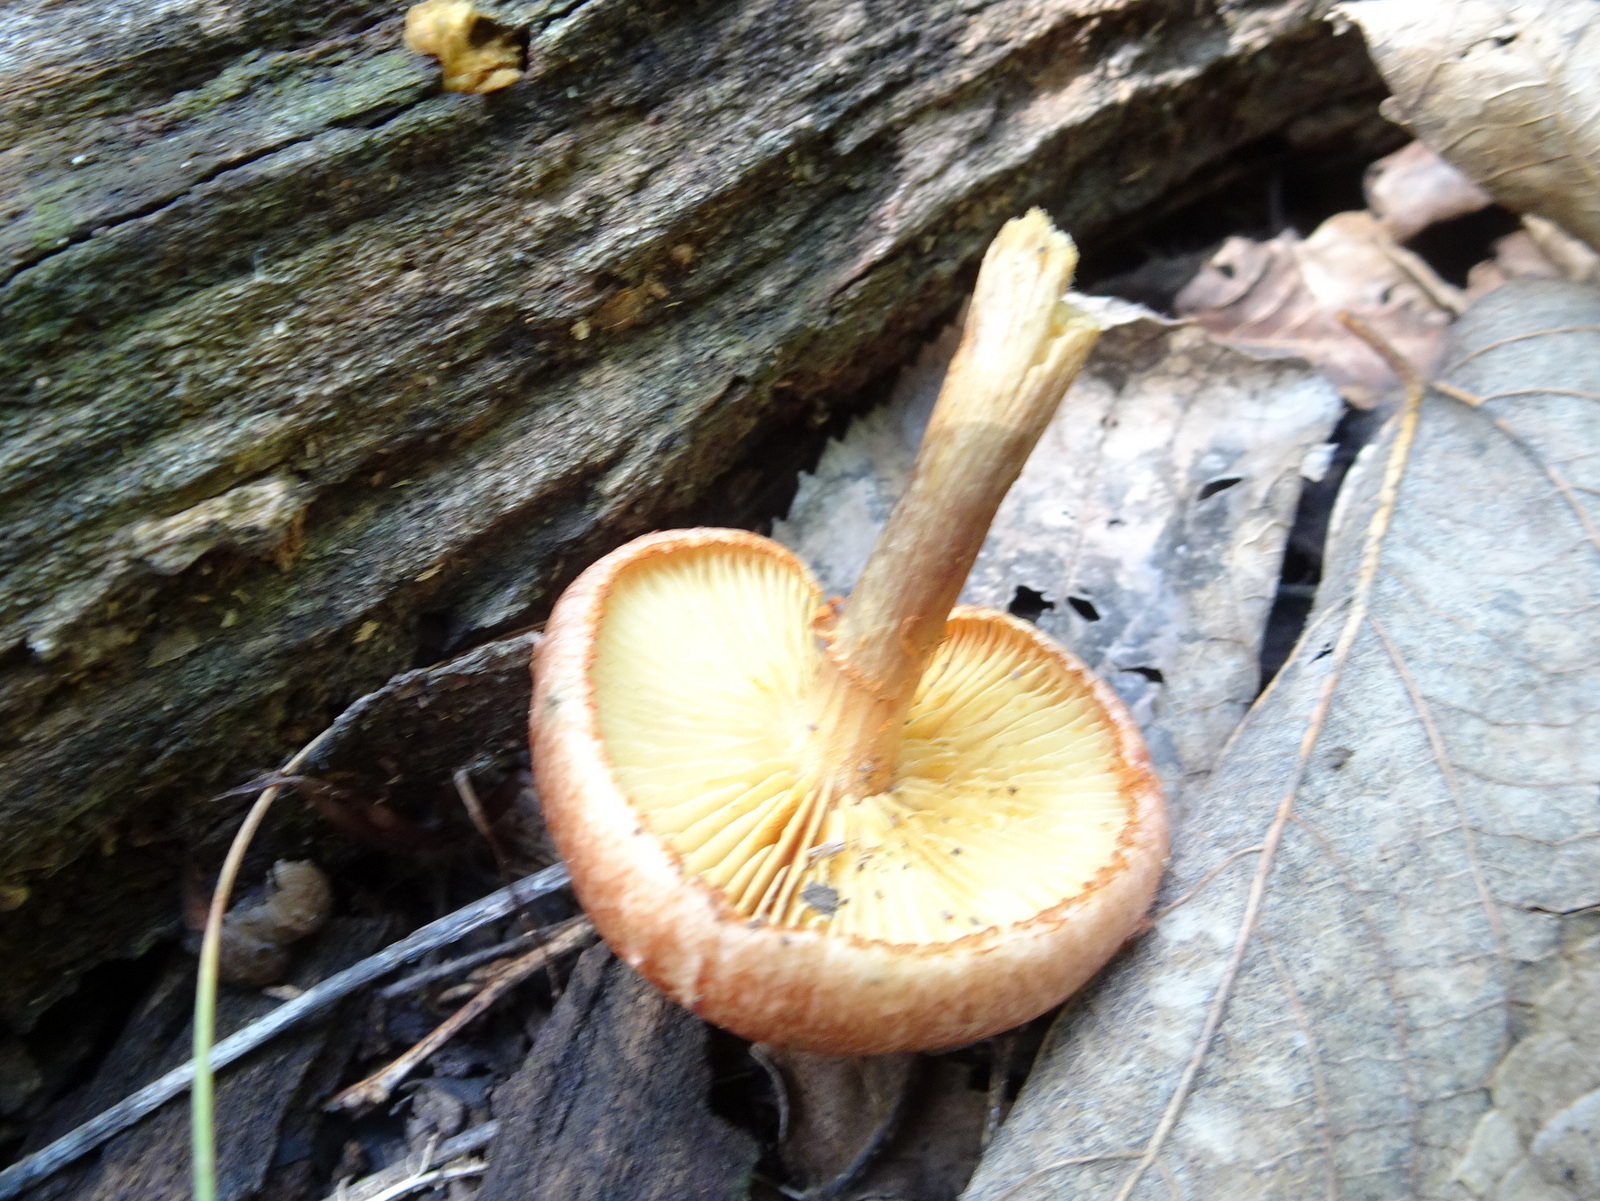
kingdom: Fungi
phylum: Basidiomycota
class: Agaricomycetes
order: Agaricales
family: Hymenogastraceae
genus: Gymnopilus
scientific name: Gymnopilus luteofolius
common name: Yellow-gilled gymnopilus
